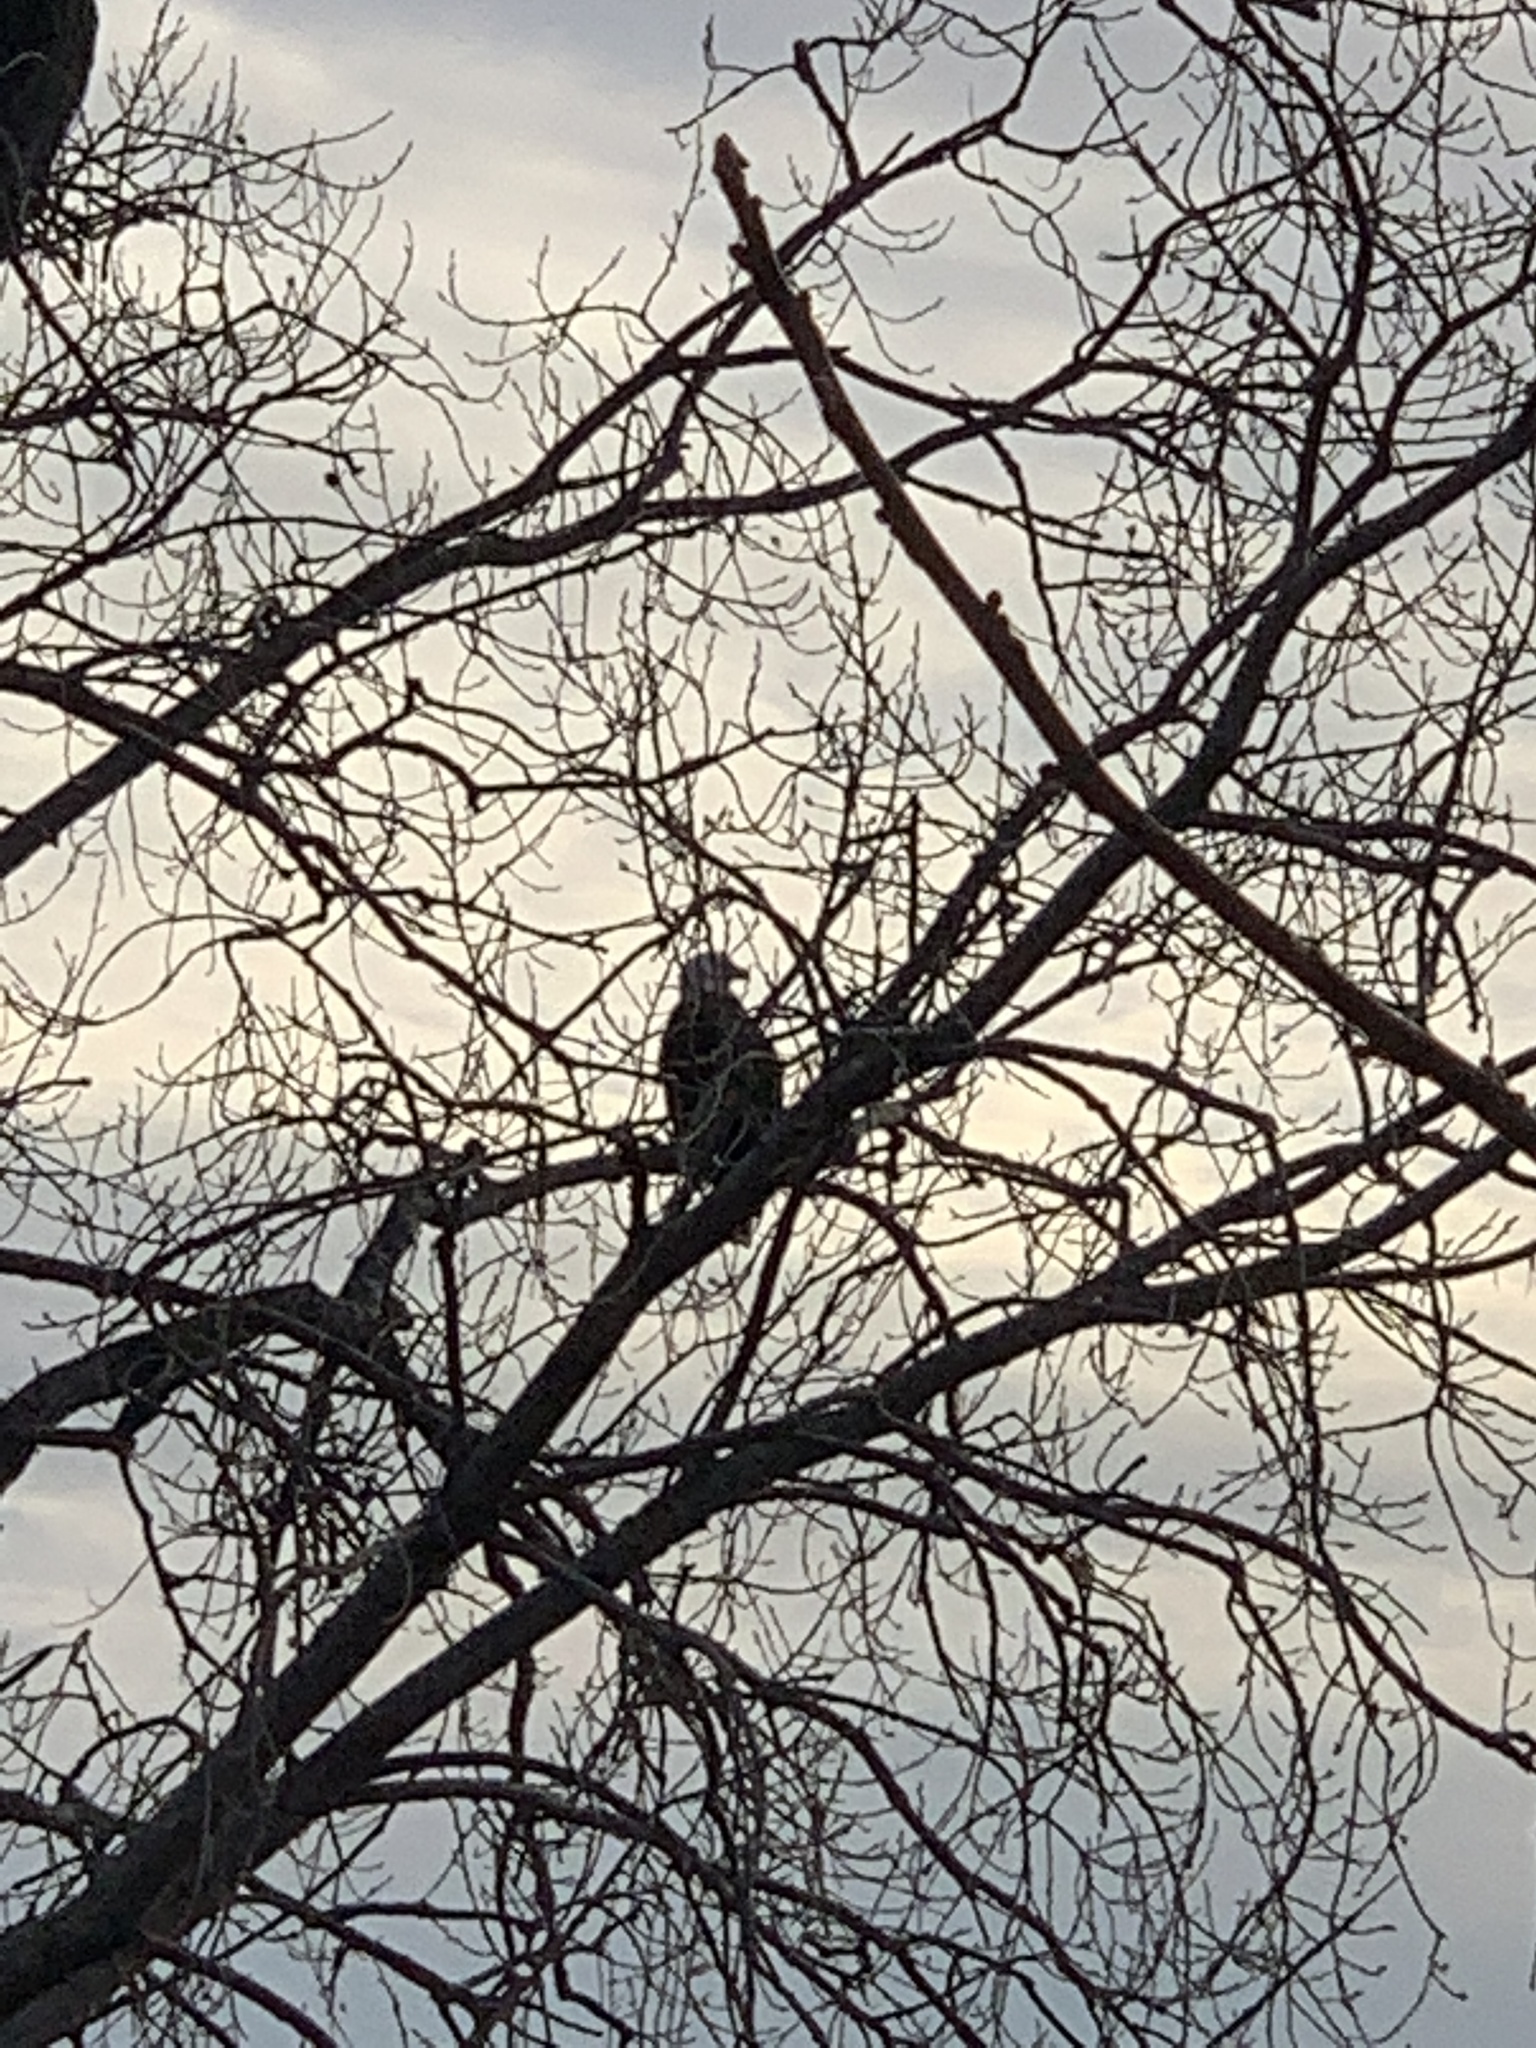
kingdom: Animalia
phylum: Chordata
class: Aves
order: Accipitriformes
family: Accipitridae
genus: Haliaeetus
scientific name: Haliaeetus leucocephalus
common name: Bald eagle
